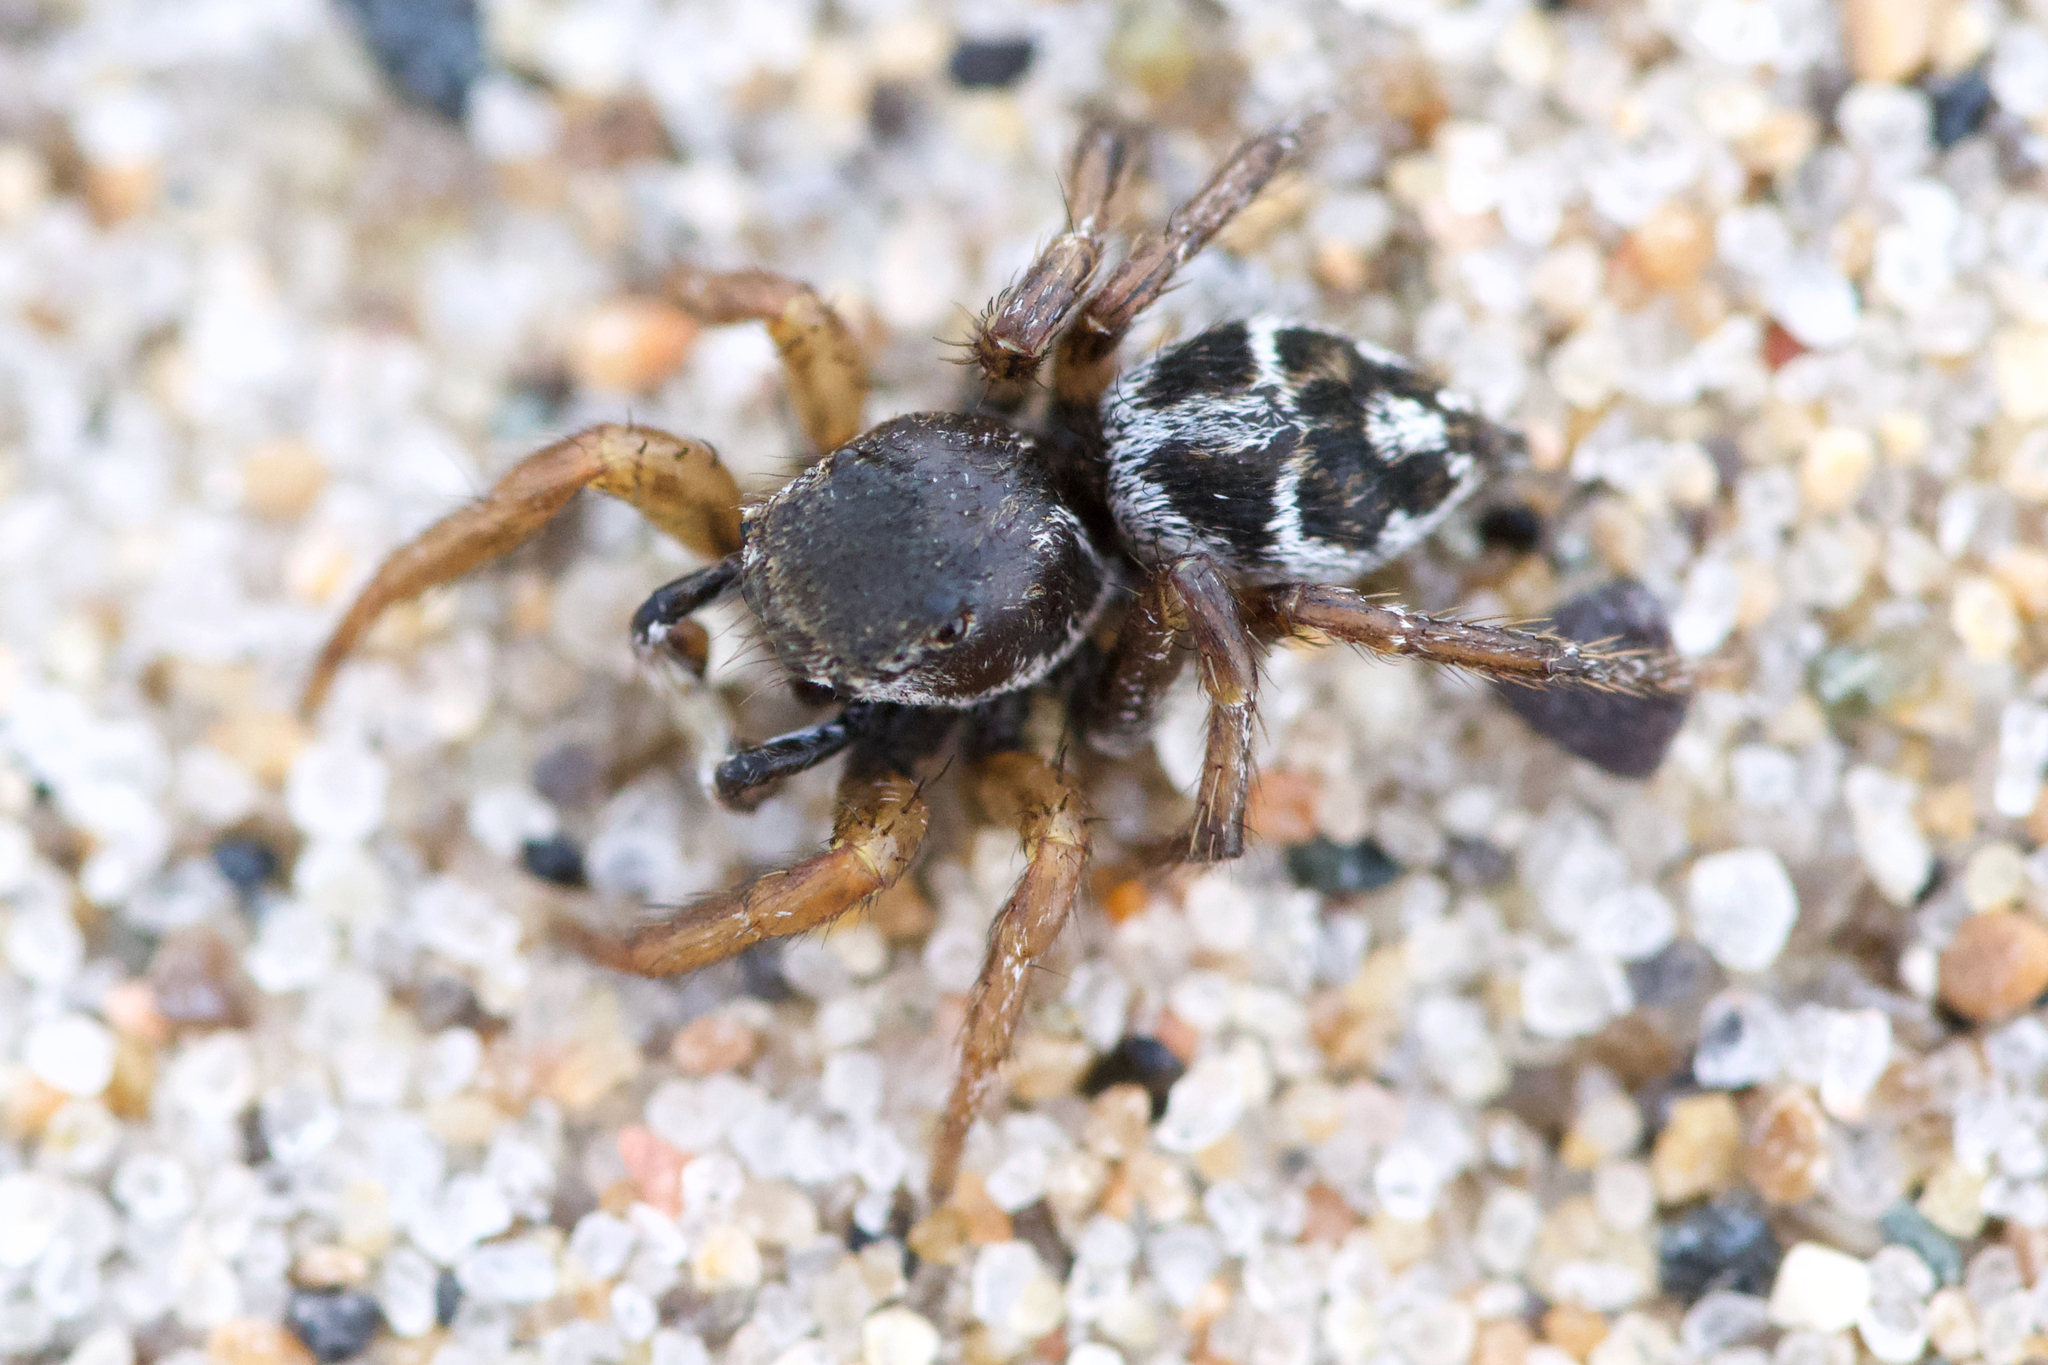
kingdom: Animalia
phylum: Arthropoda
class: Arachnida
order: Araneae
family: Salticidae
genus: Habronattus
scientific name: Habronattus borealis
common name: Boreal paradise spider
